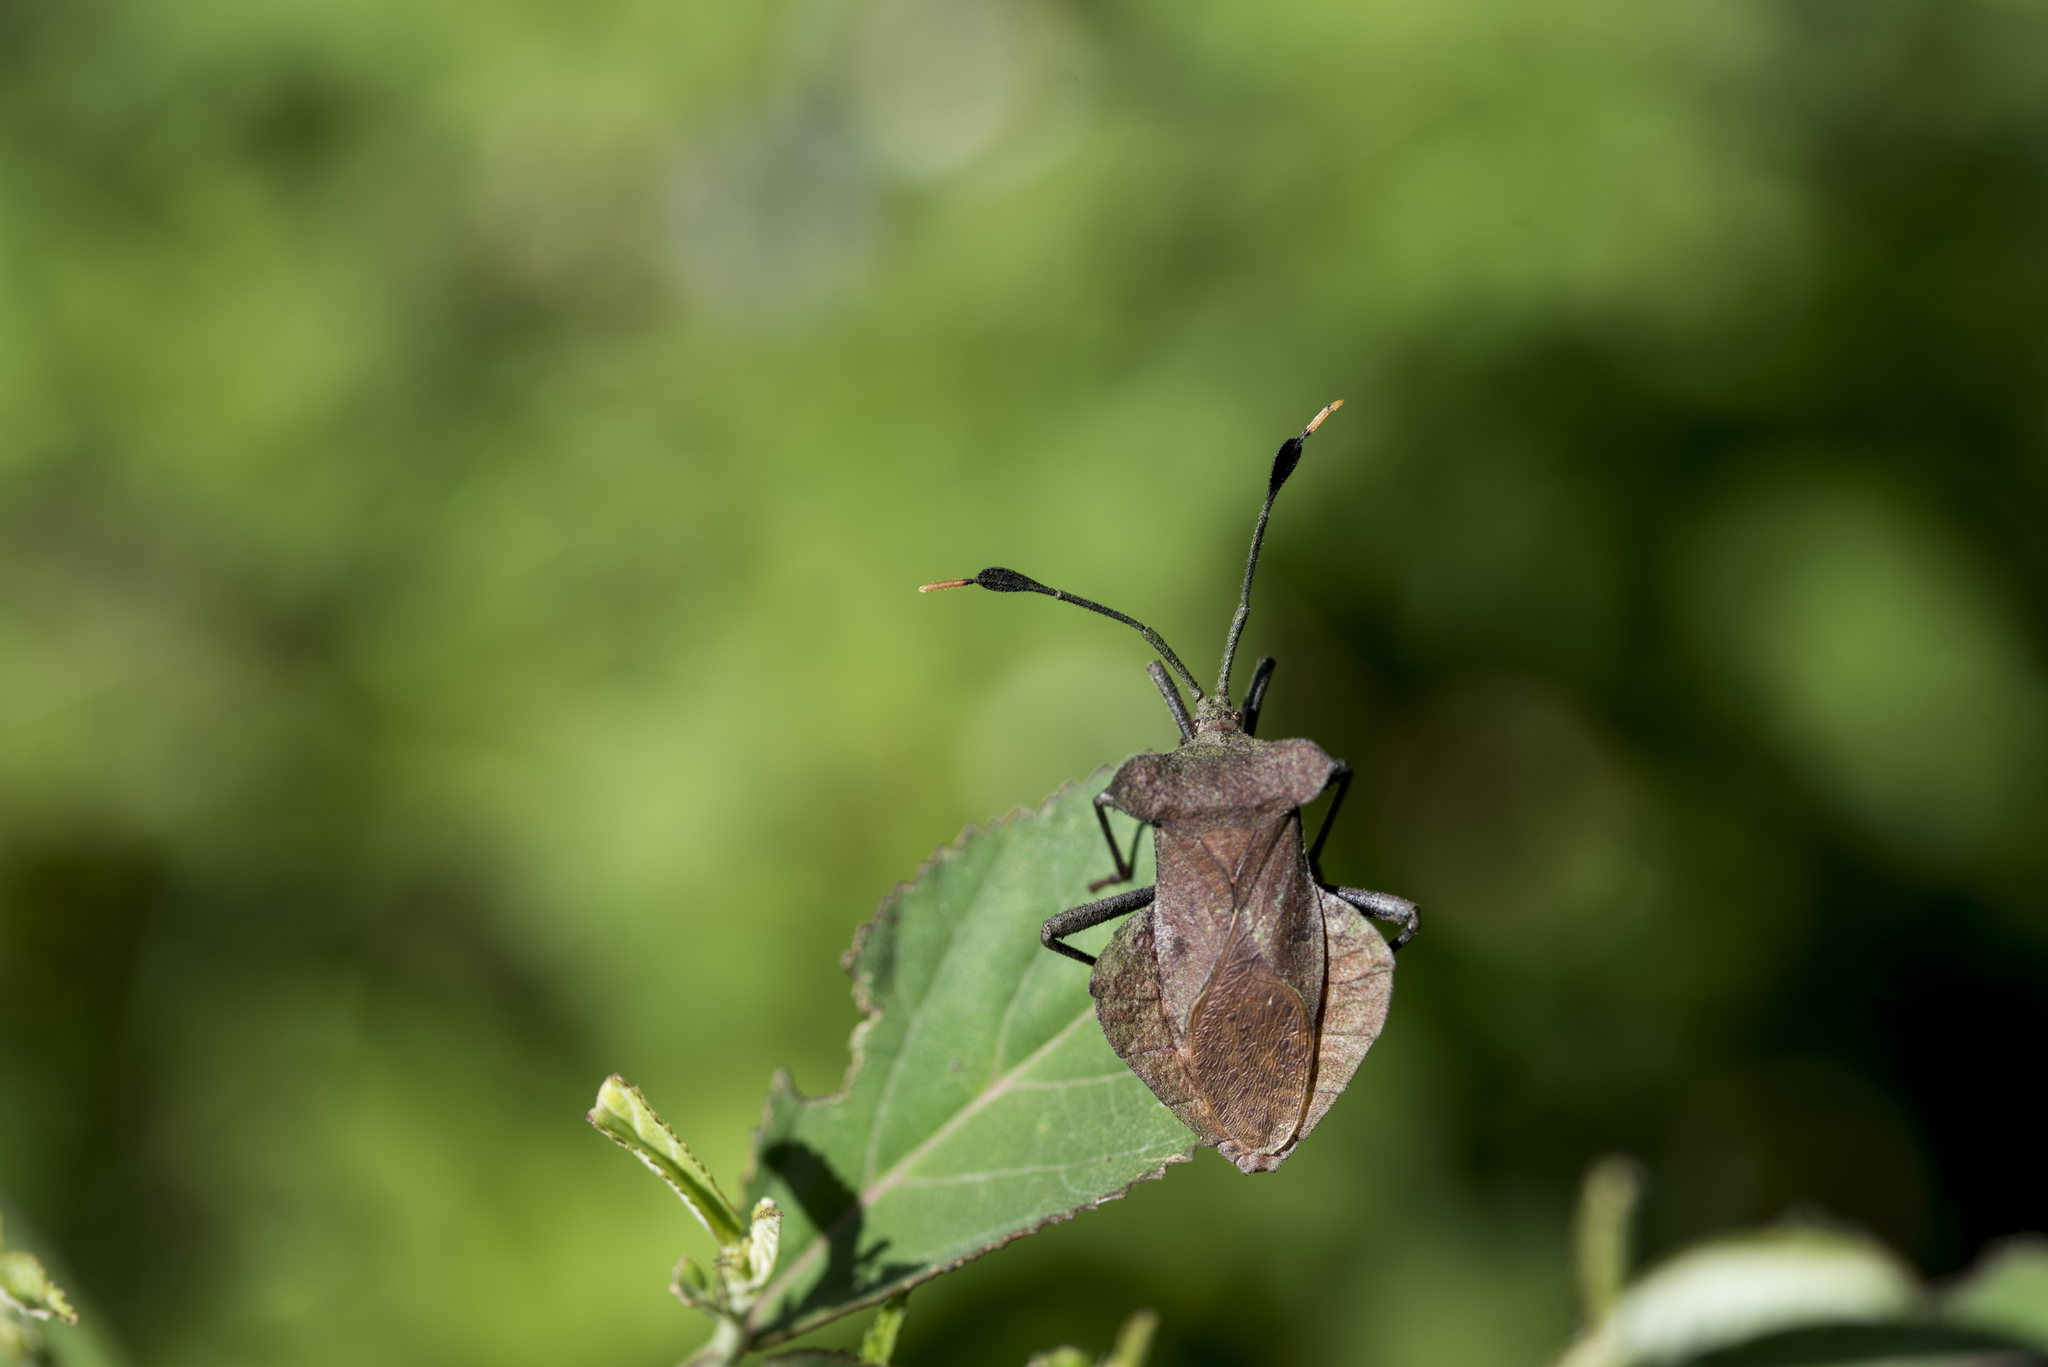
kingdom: Animalia
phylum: Arthropoda
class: Insecta
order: Hemiptera
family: Coreidae
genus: Dalader
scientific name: Dalader formosanus
